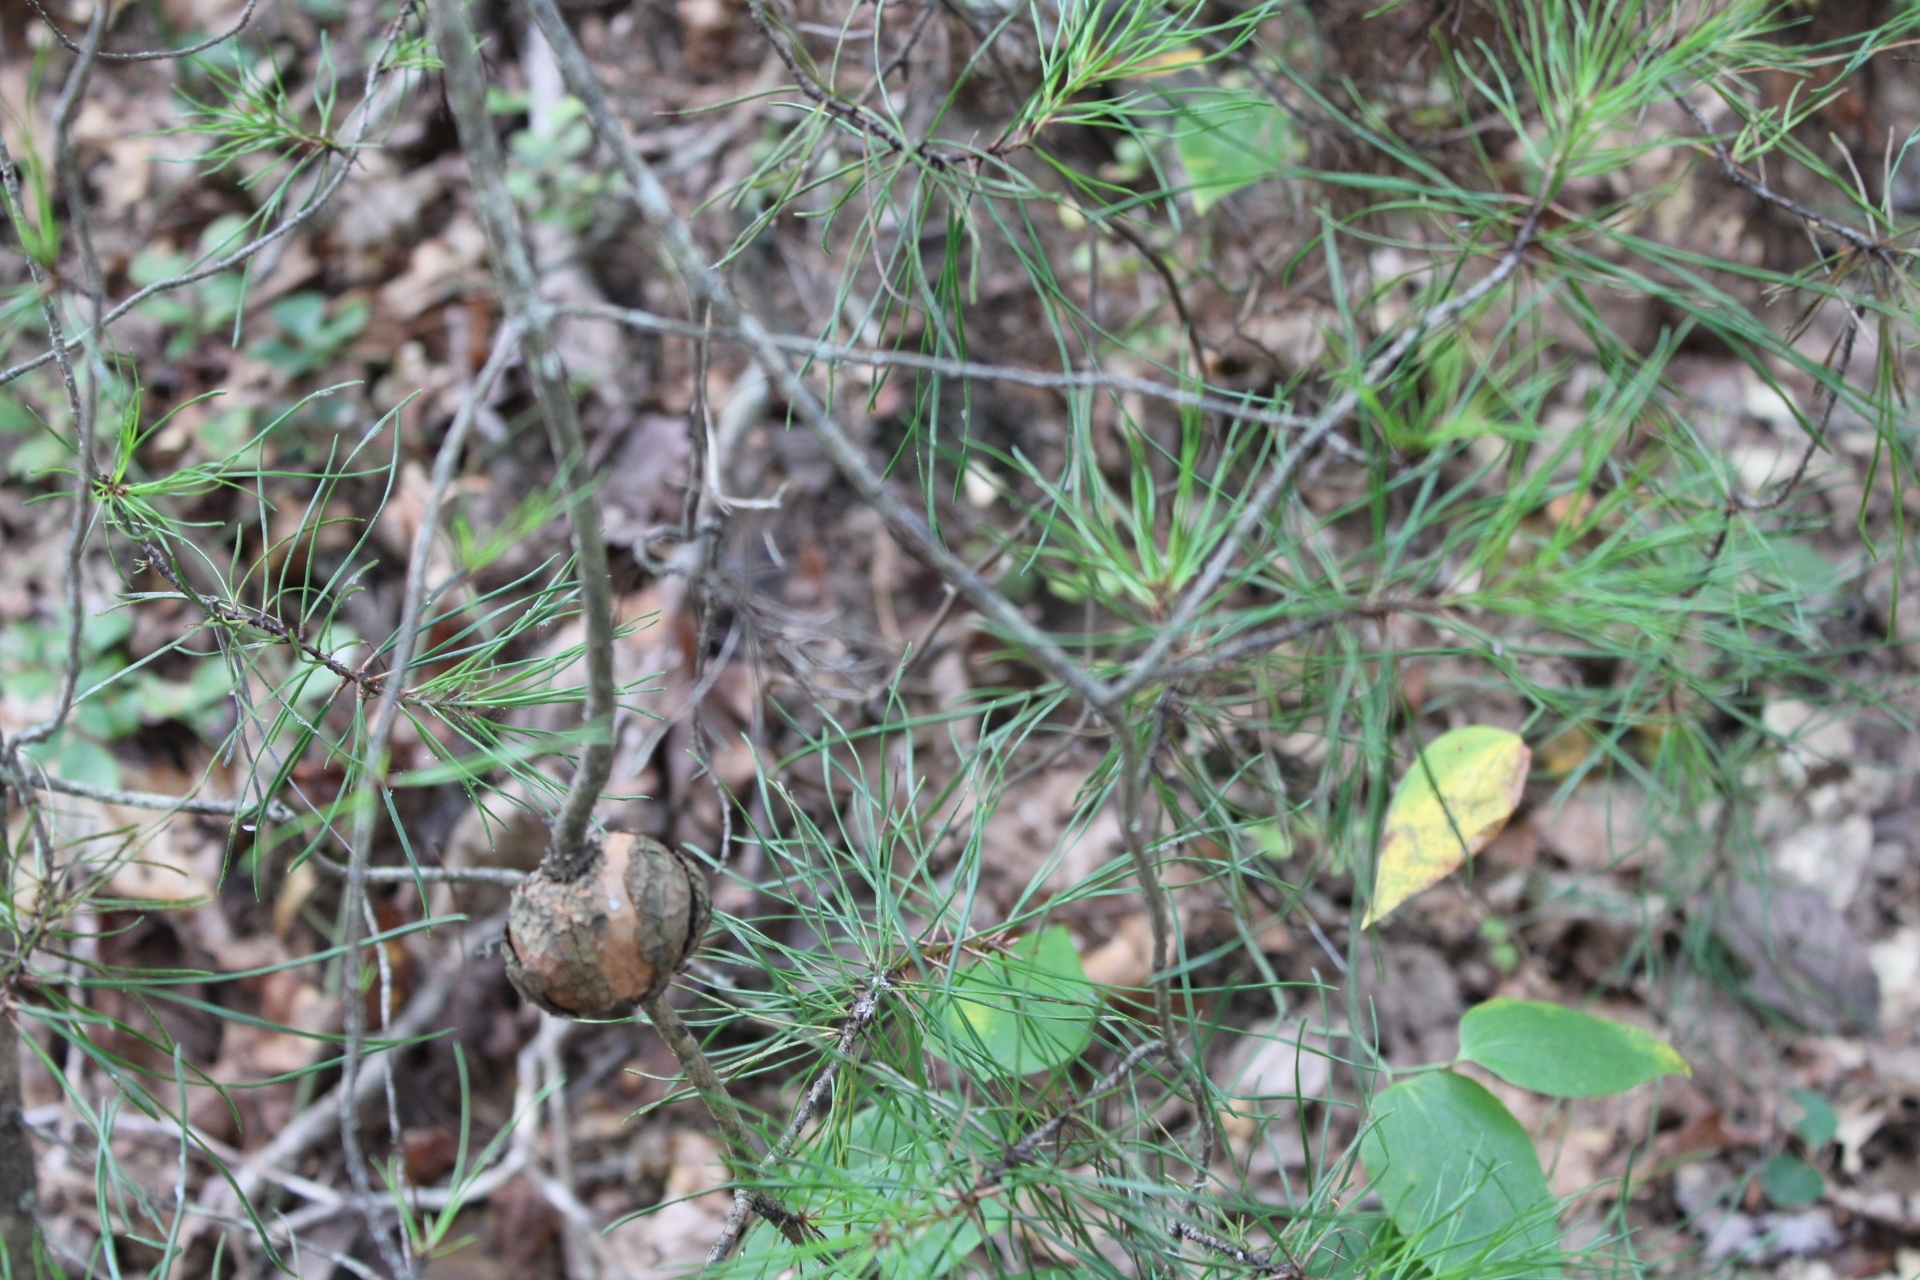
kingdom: Fungi
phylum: Basidiomycota
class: Pucciniomycetes
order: Pucciniales
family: Cronartiaceae
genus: Cronartium
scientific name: Cronartium quercuum
